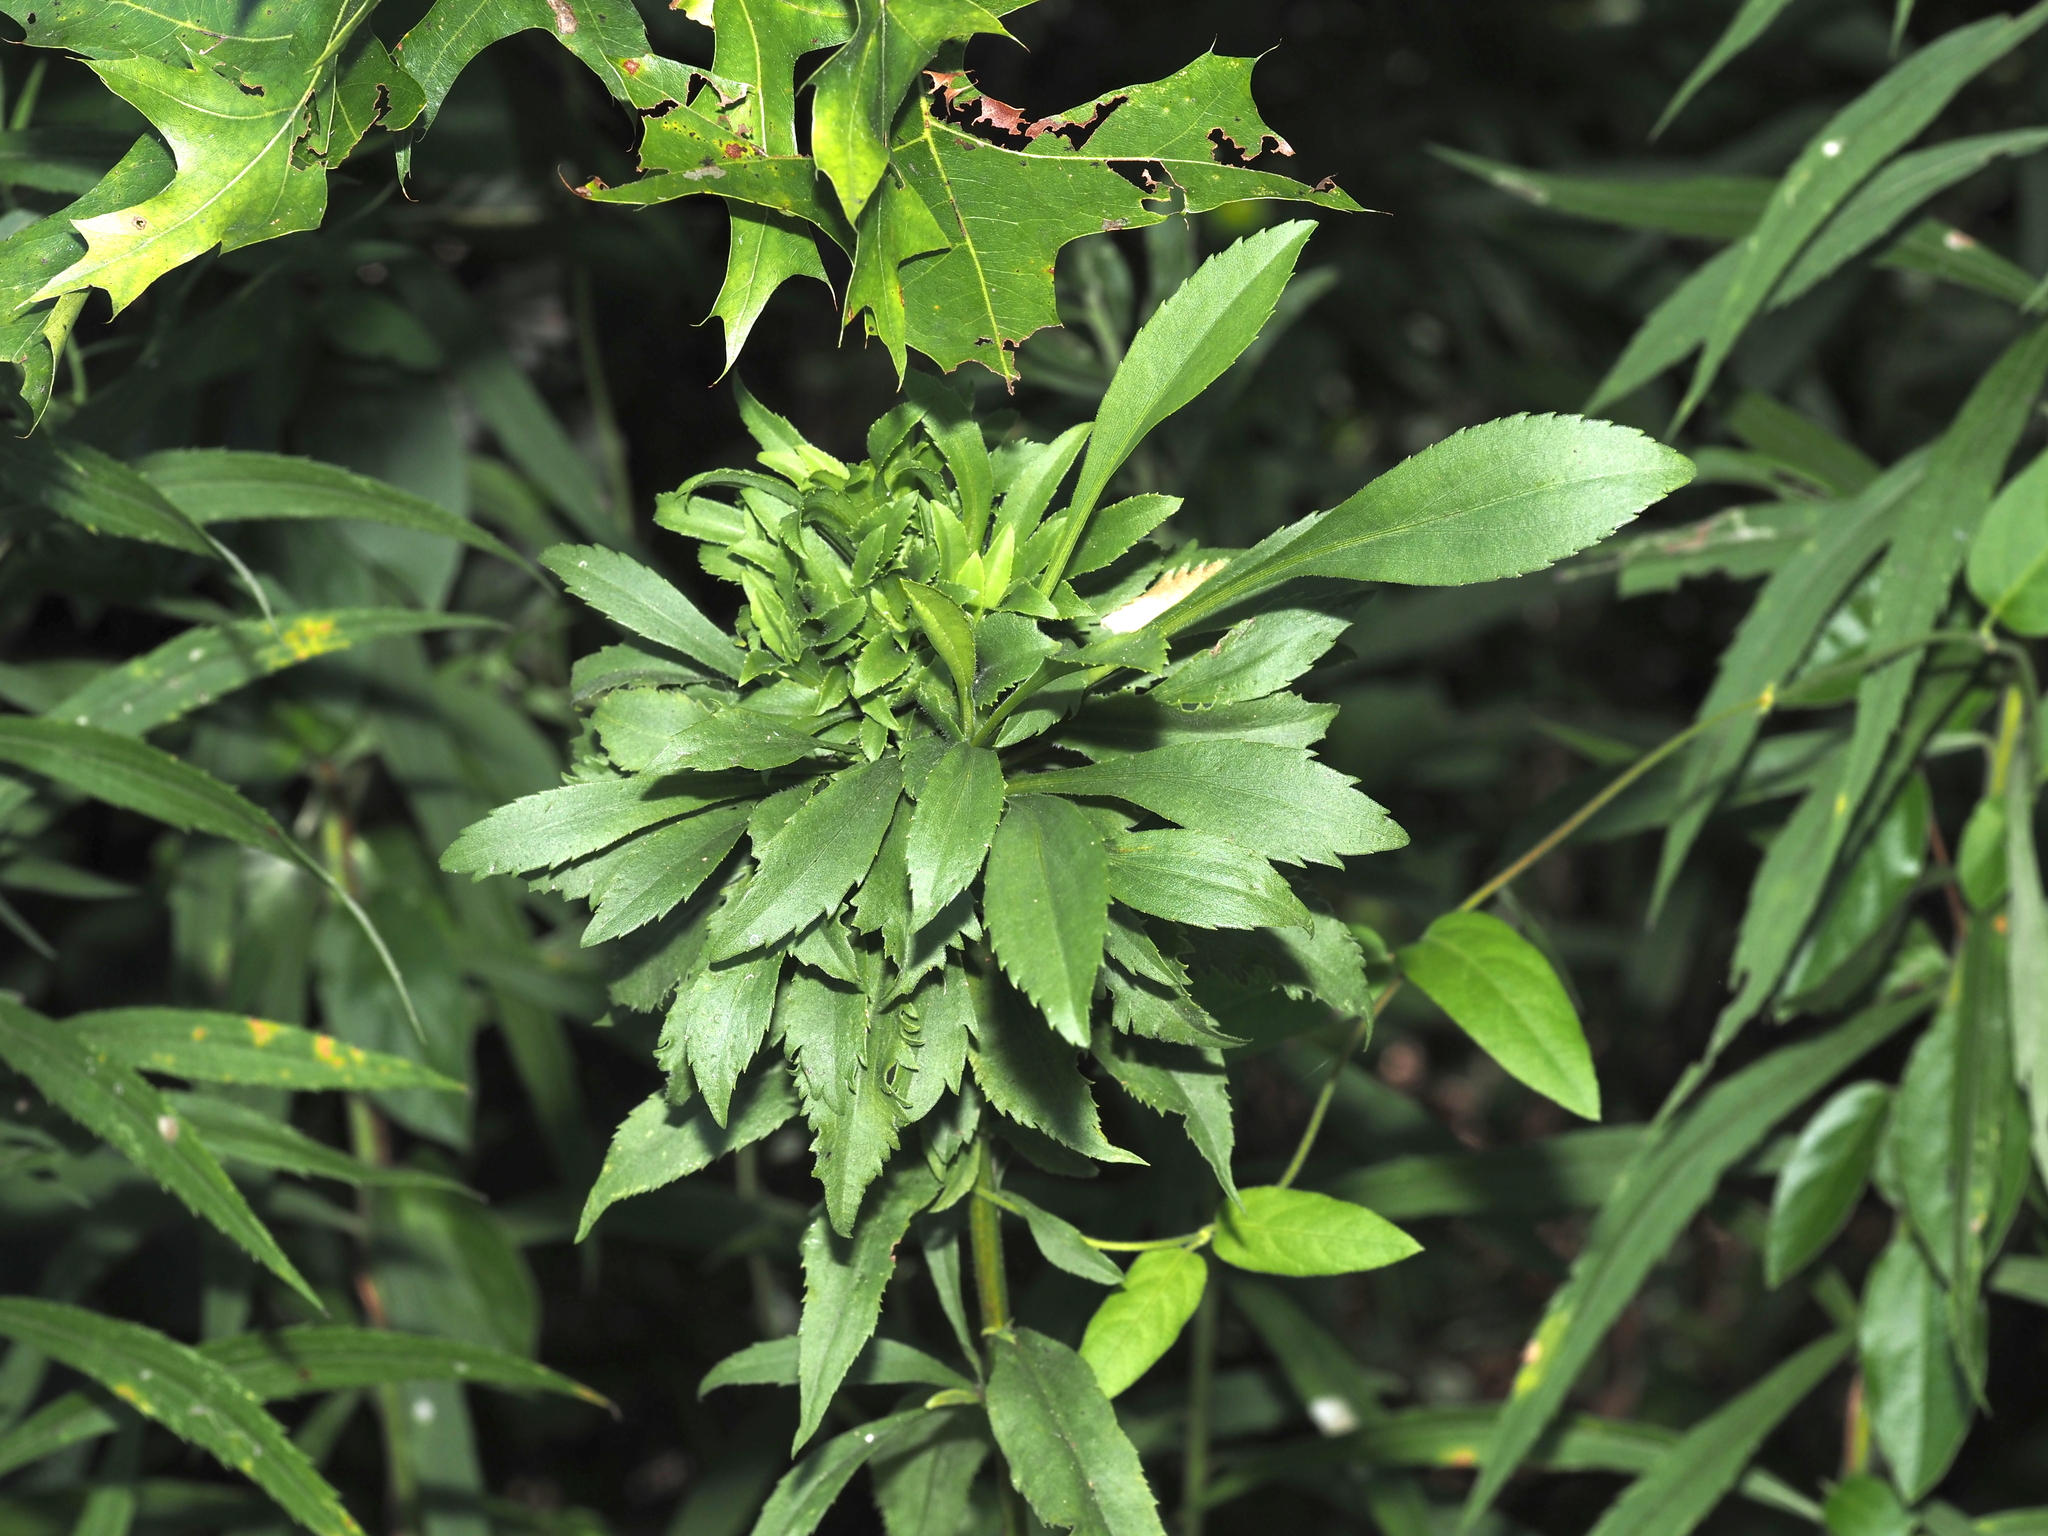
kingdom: Animalia
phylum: Arthropoda
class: Insecta
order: Diptera
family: Cecidomyiidae
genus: Asphondylia
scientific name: Asphondylia monacha
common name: Nun midge
